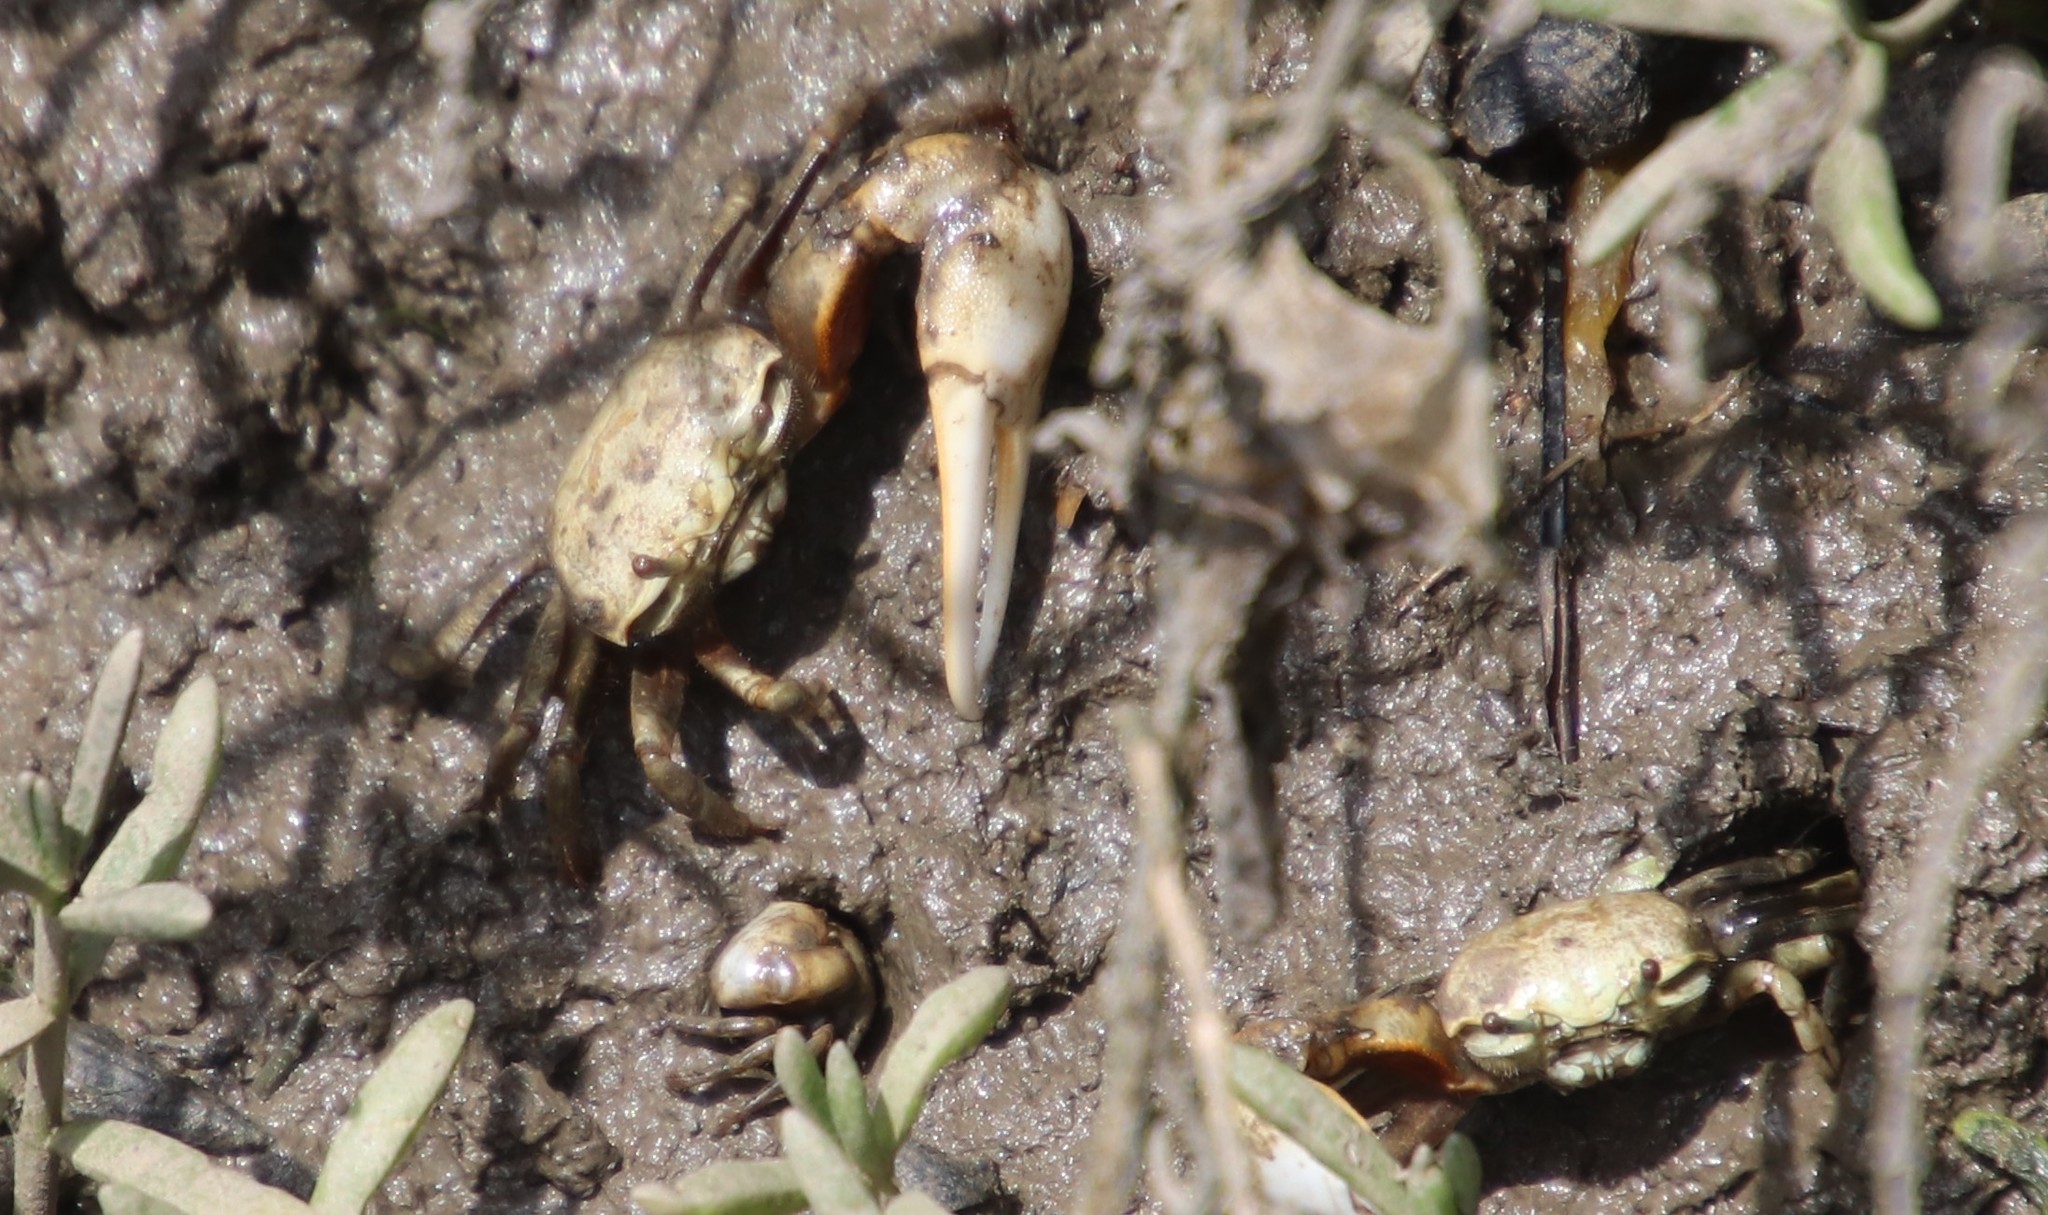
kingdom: Animalia
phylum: Arthropoda
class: Malacostraca
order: Decapoda
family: Ocypodidae
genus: Leptuca
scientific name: Leptuca crenulata
